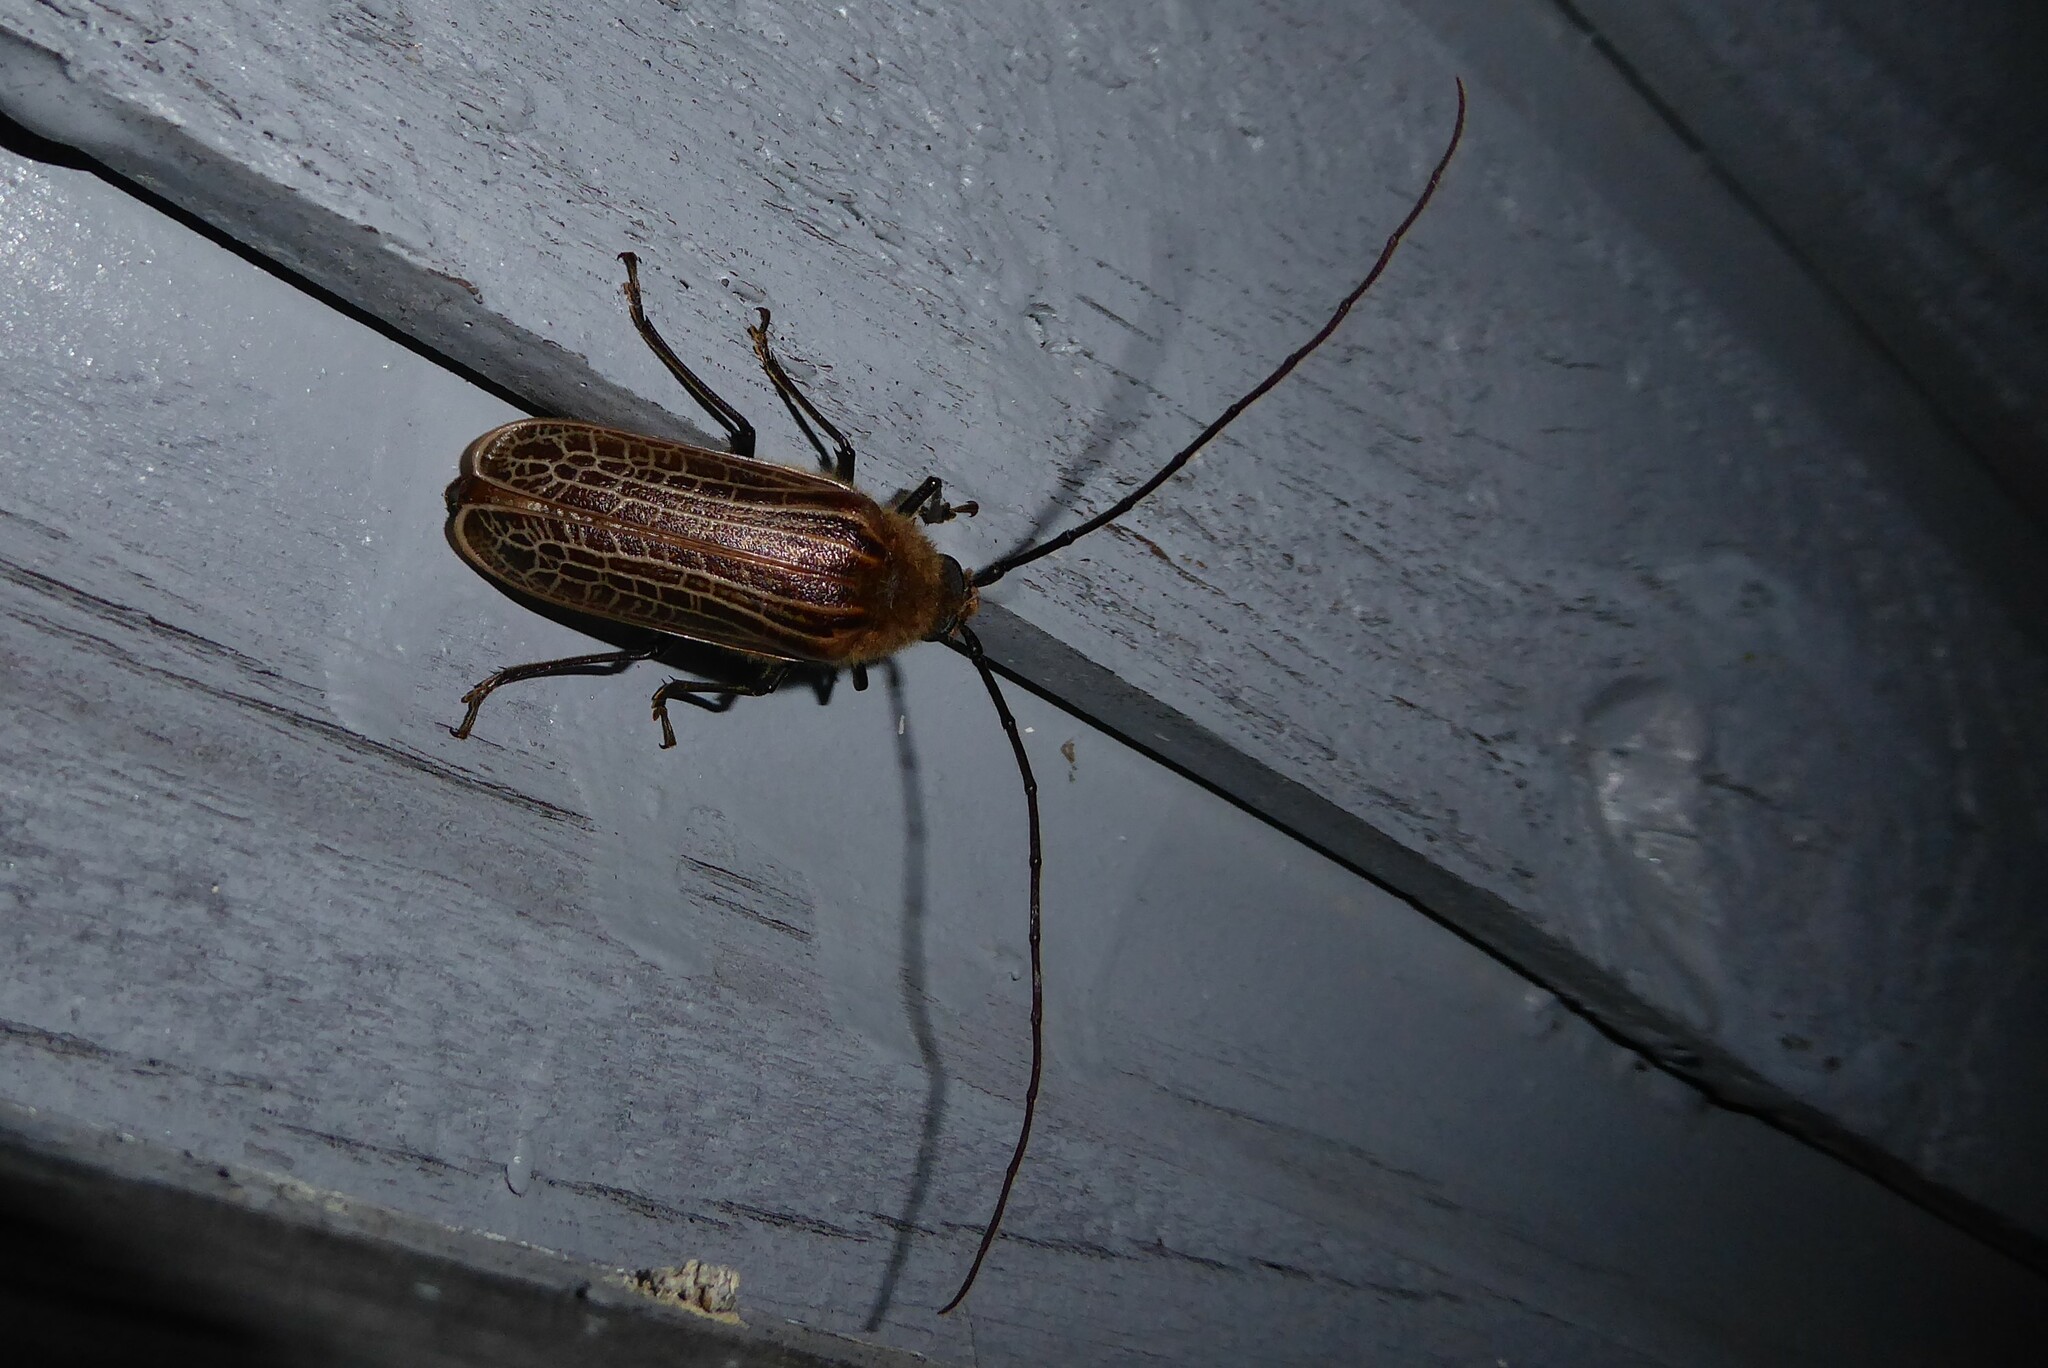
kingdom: Animalia
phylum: Arthropoda
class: Insecta
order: Coleoptera
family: Cerambycidae
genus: Prionoplus
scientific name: Prionoplus reticularis
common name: Huhu beetle
